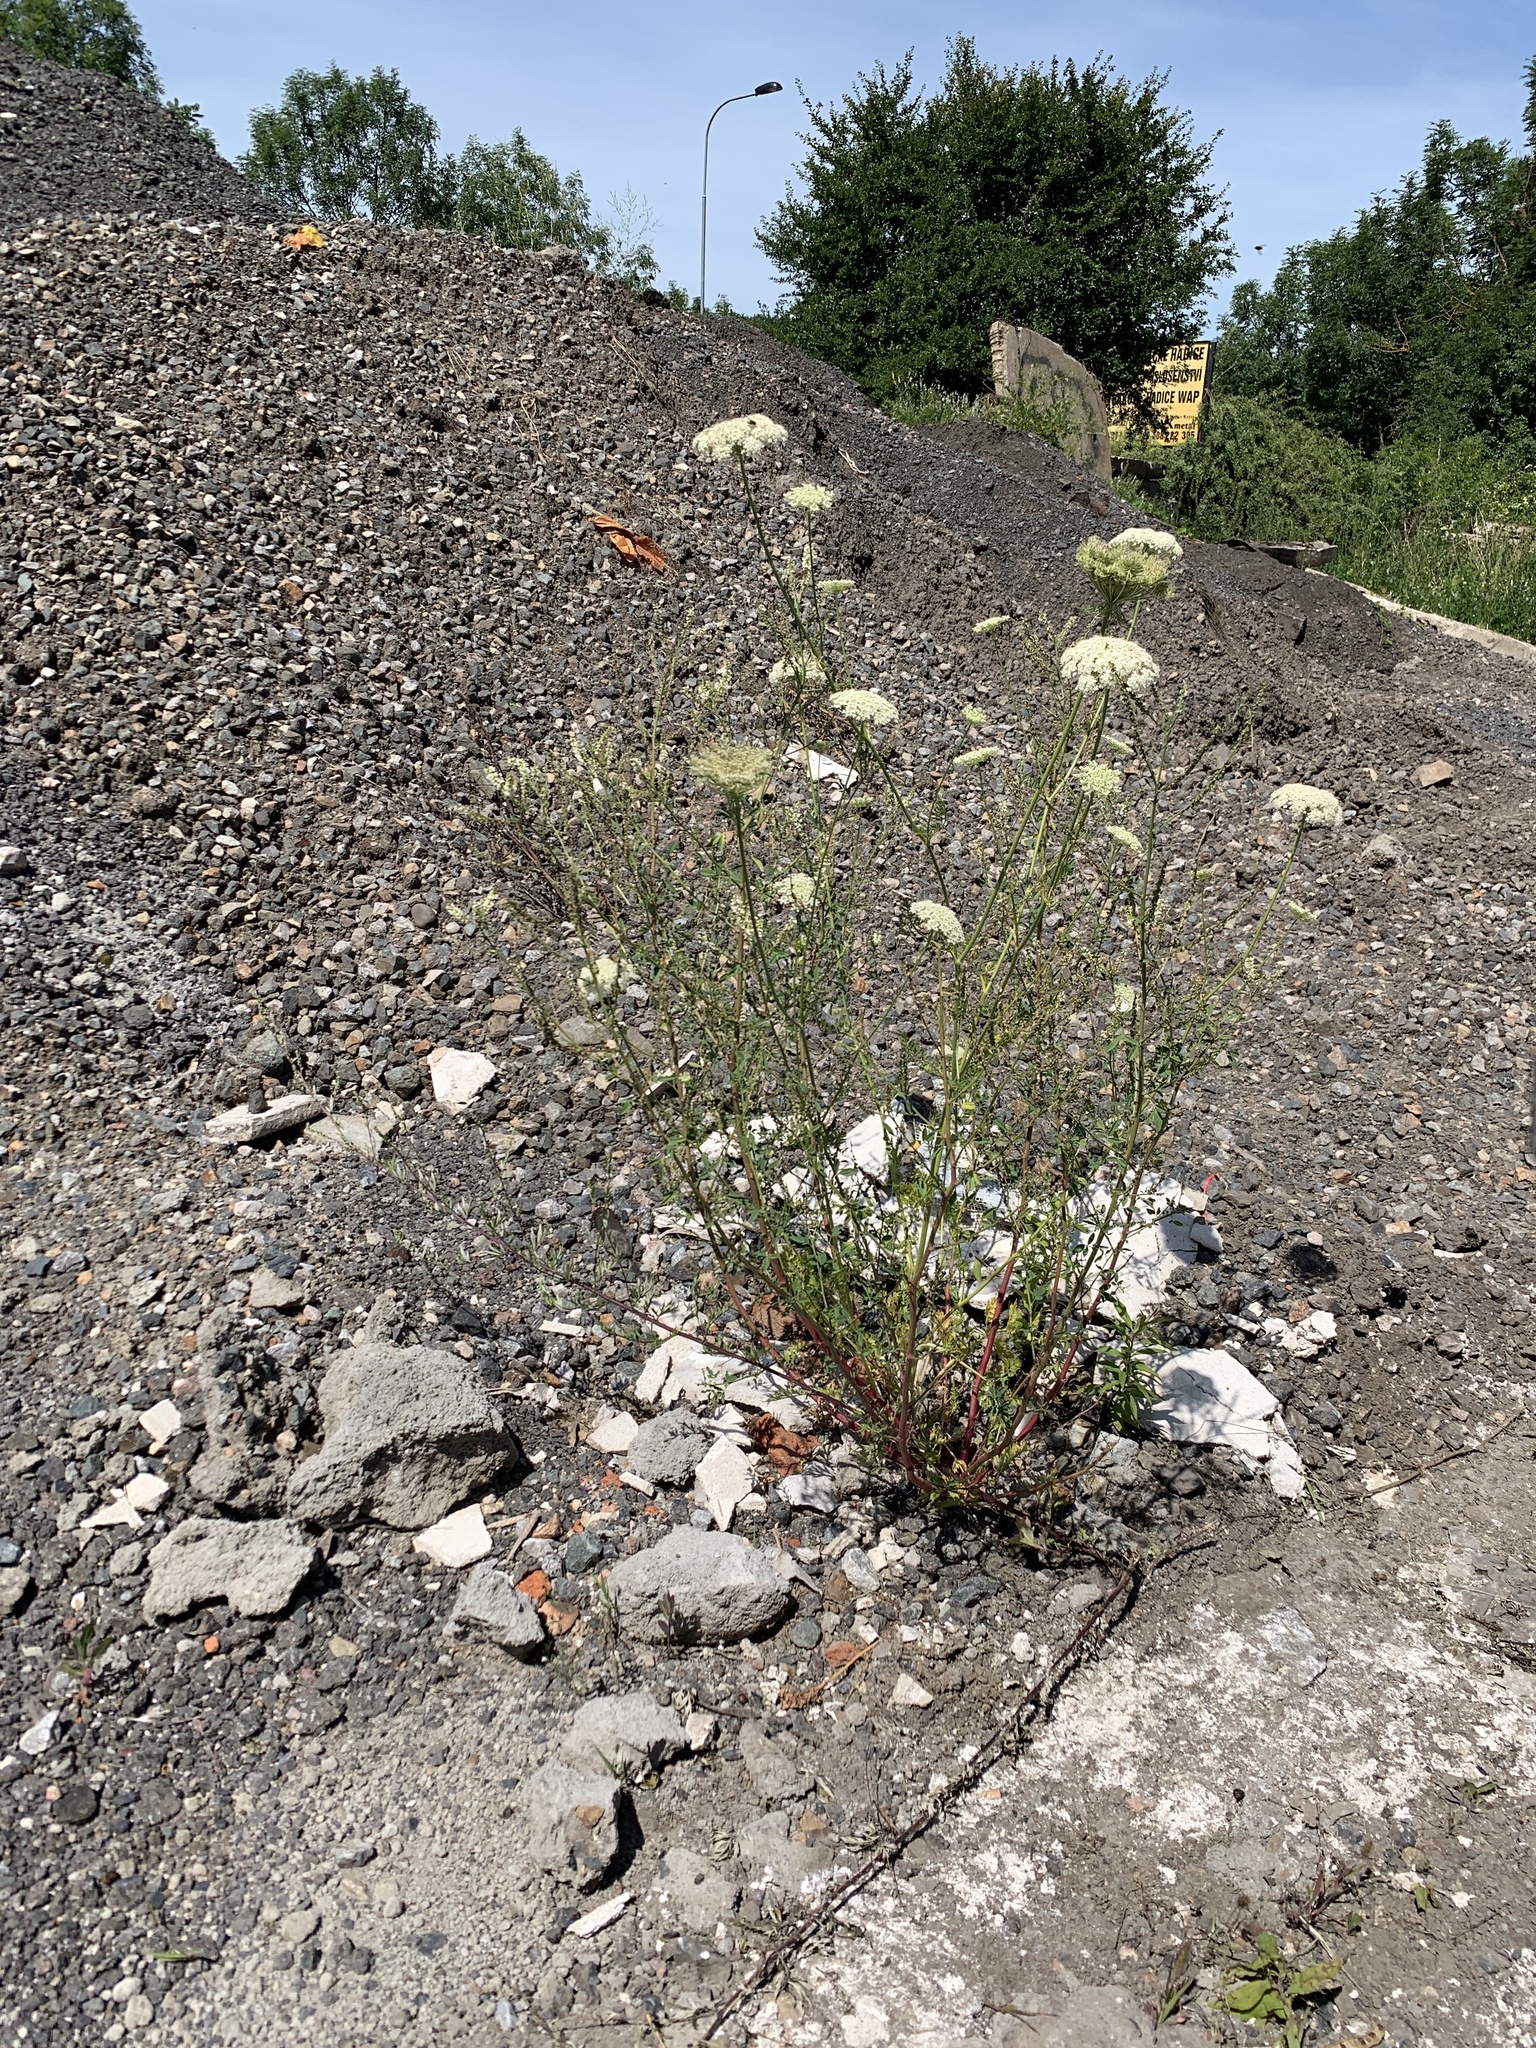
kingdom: Plantae
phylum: Tracheophyta
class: Magnoliopsida
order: Apiales
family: Apiaceae
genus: Daucus
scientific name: Daucus carota
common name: Wild carrot
